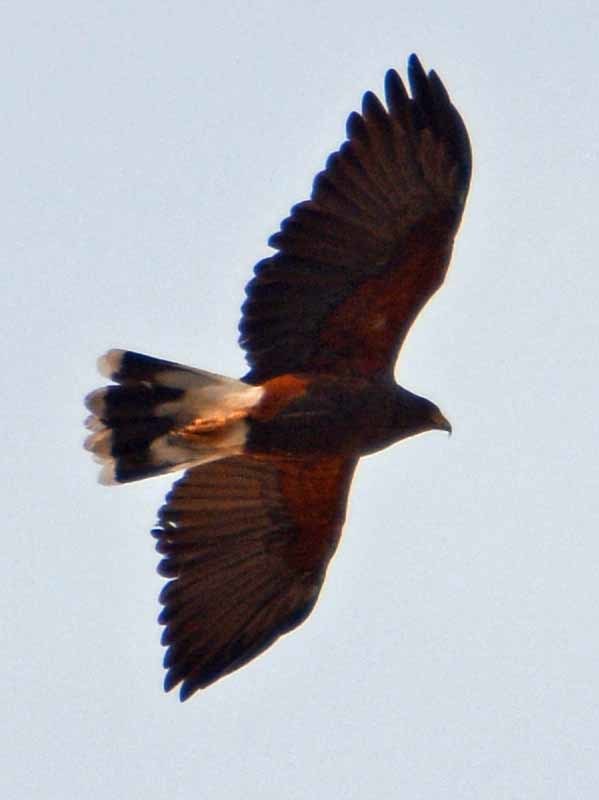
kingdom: Animalia
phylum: Chordata
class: Aves
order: Accipitriformes
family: Accipitridae
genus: Parabuteo
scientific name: Parabuteo unicinctus
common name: Harris's hawk
